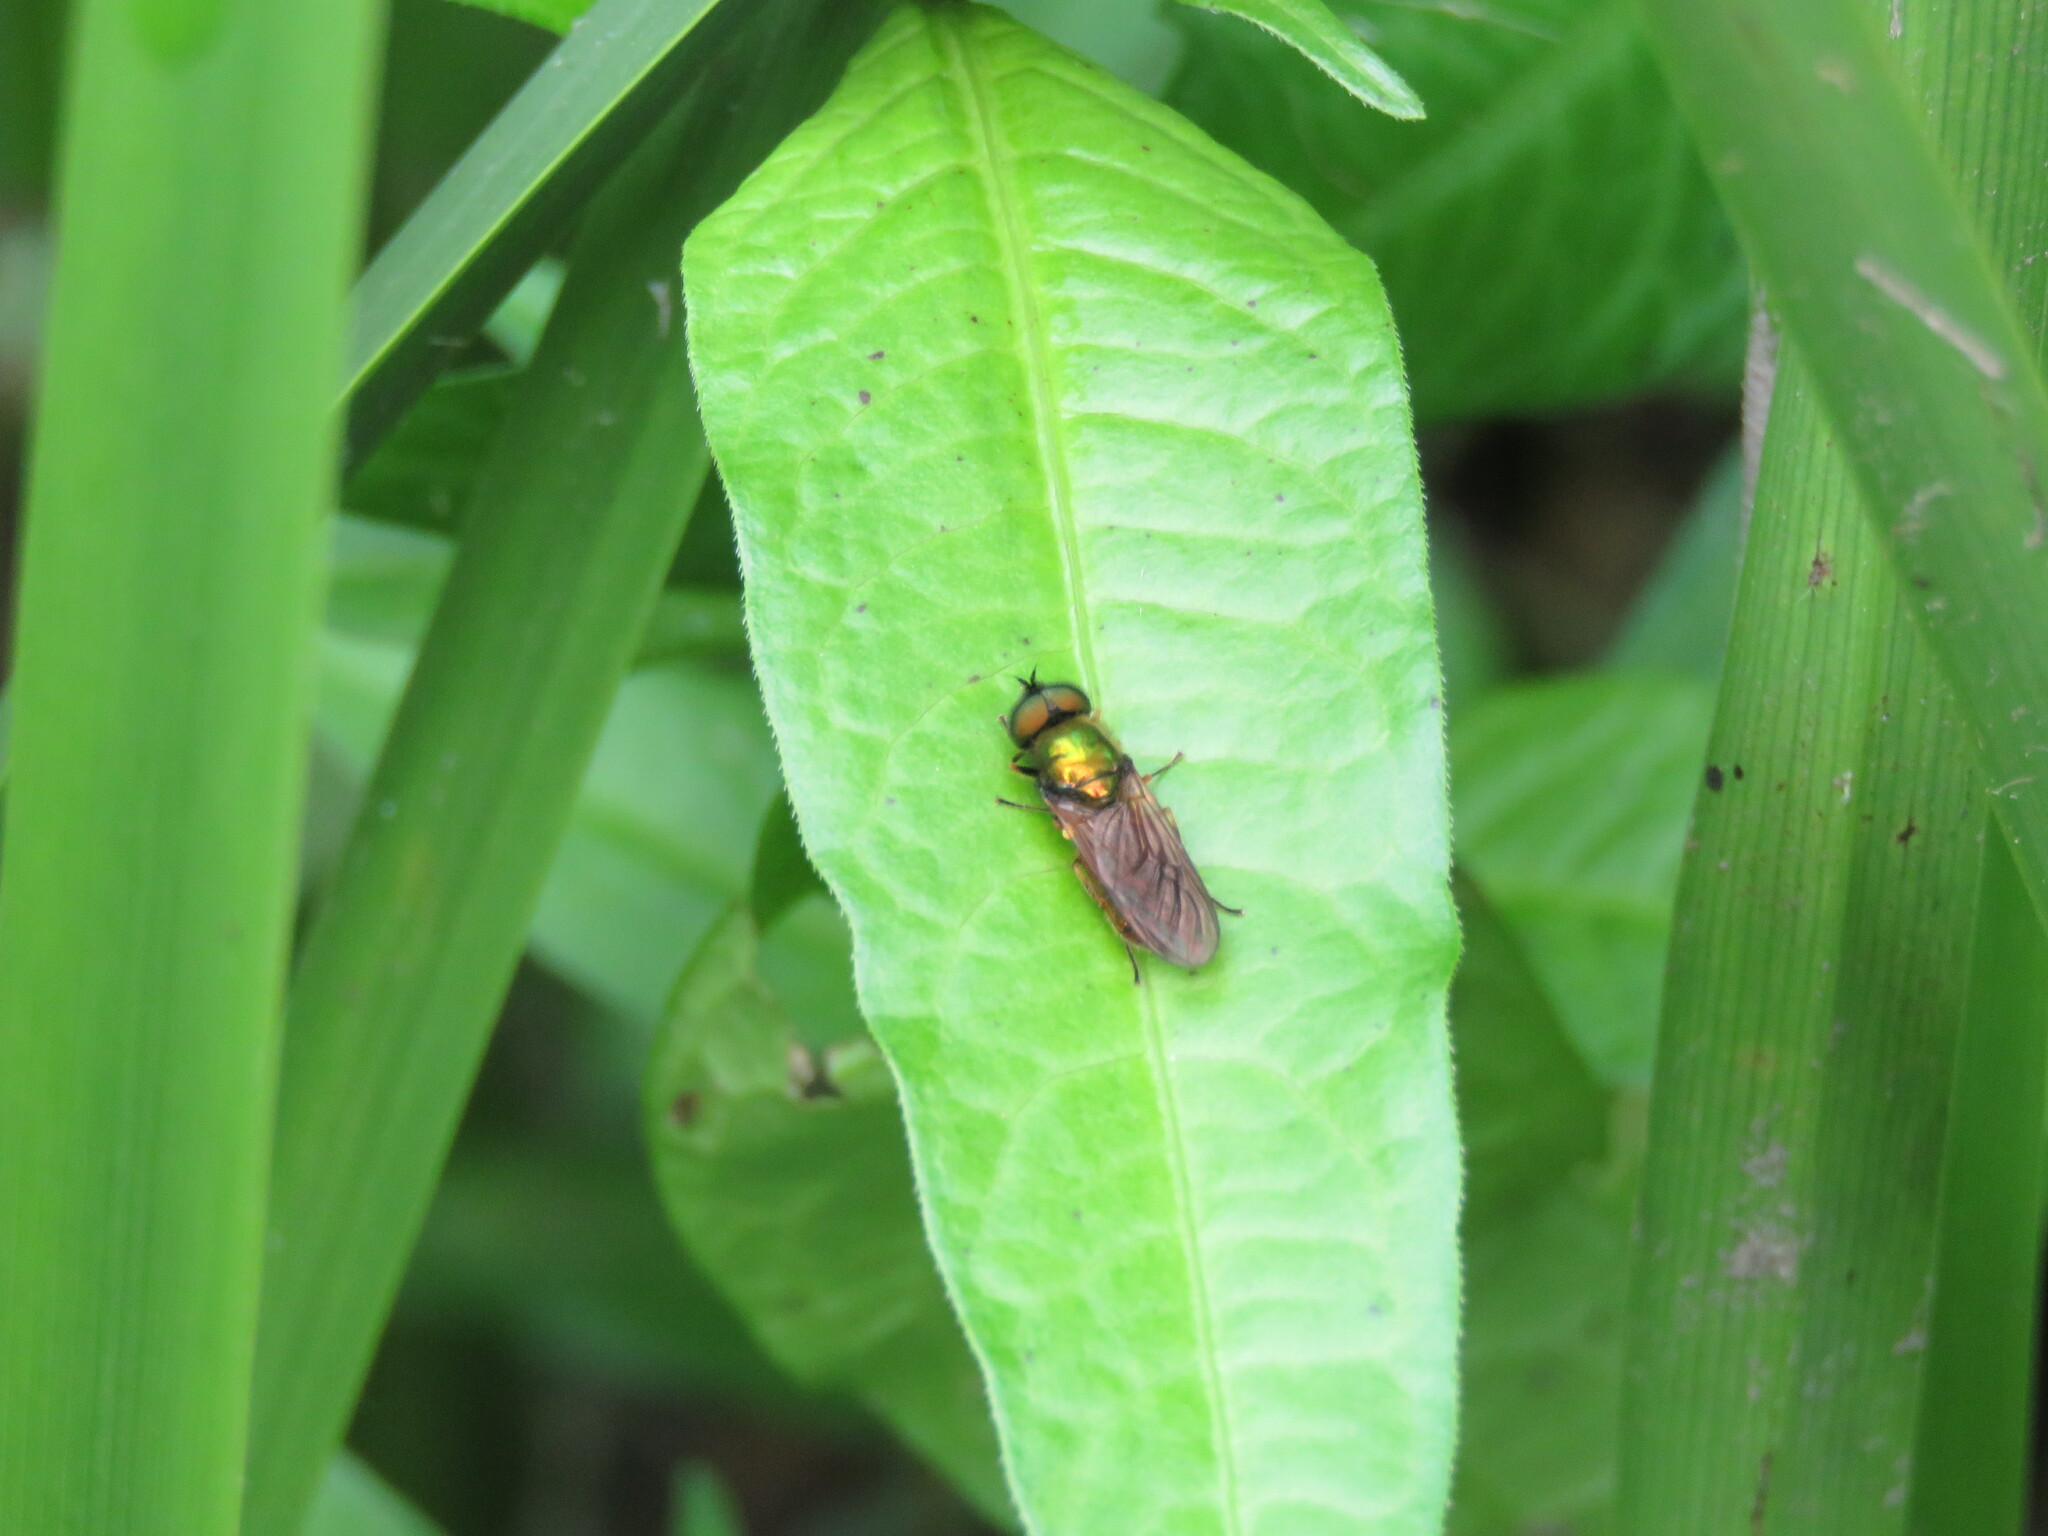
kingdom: Animalia
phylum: Arthropoda
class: Insecta
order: Diptera
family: Stratiomyidae
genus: Chloromyia
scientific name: Chloromyia formosa
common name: Soldier fly
